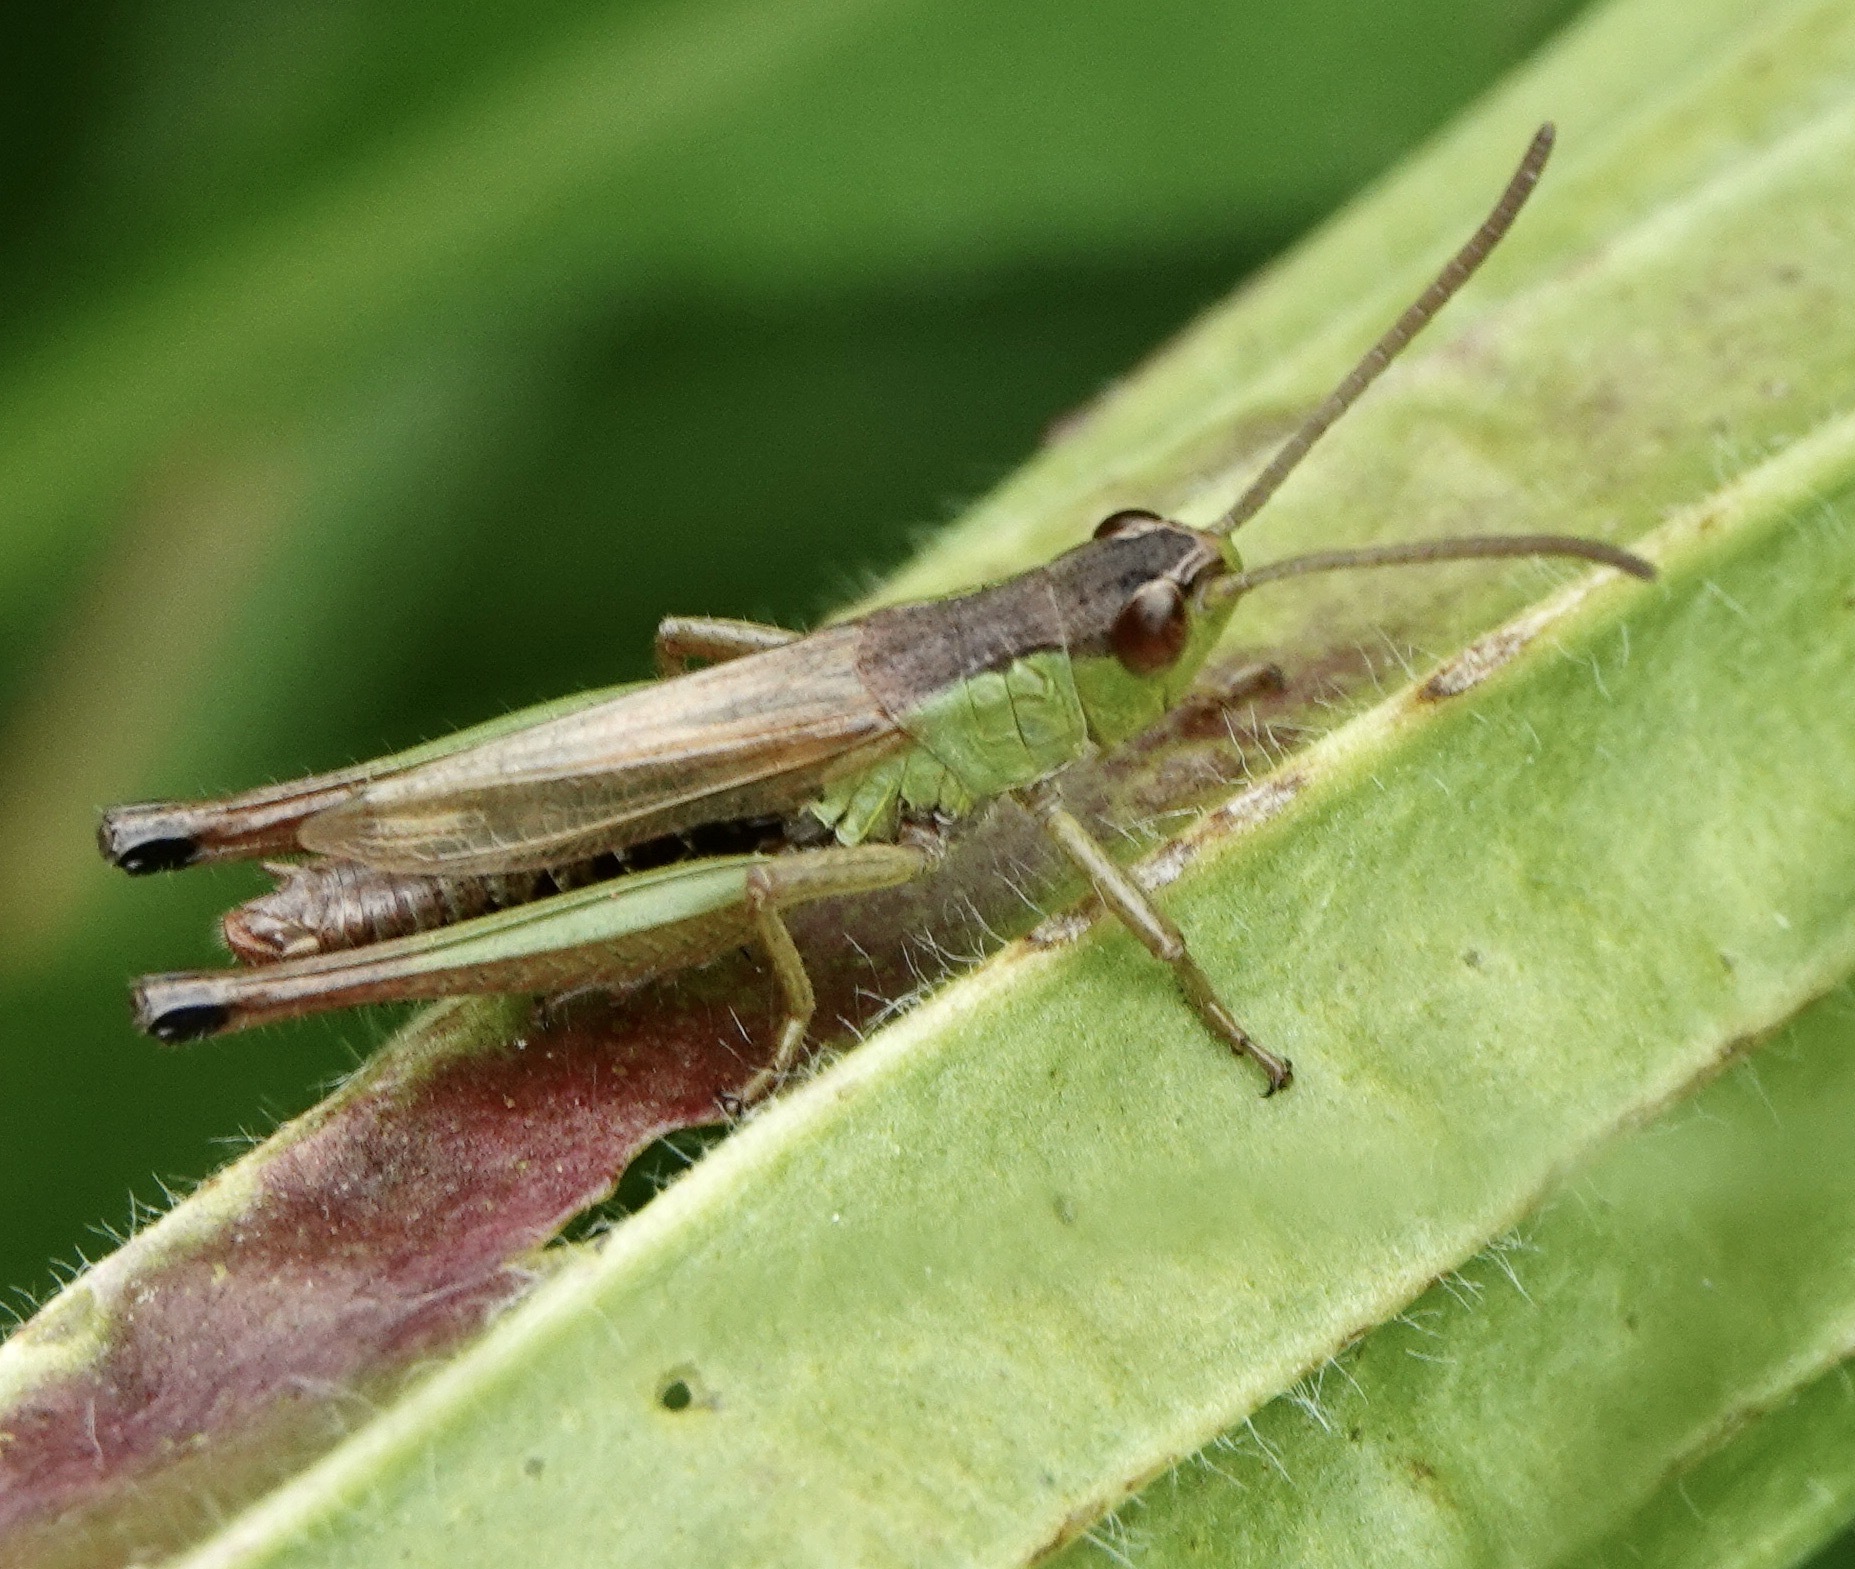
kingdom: Animalia
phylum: Arthropoda
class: Insecta
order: Orthoptera
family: Acrididae
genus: Pseudochorthippus
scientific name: Pseudochorthippus parallelus
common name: Meadow grasshopper
